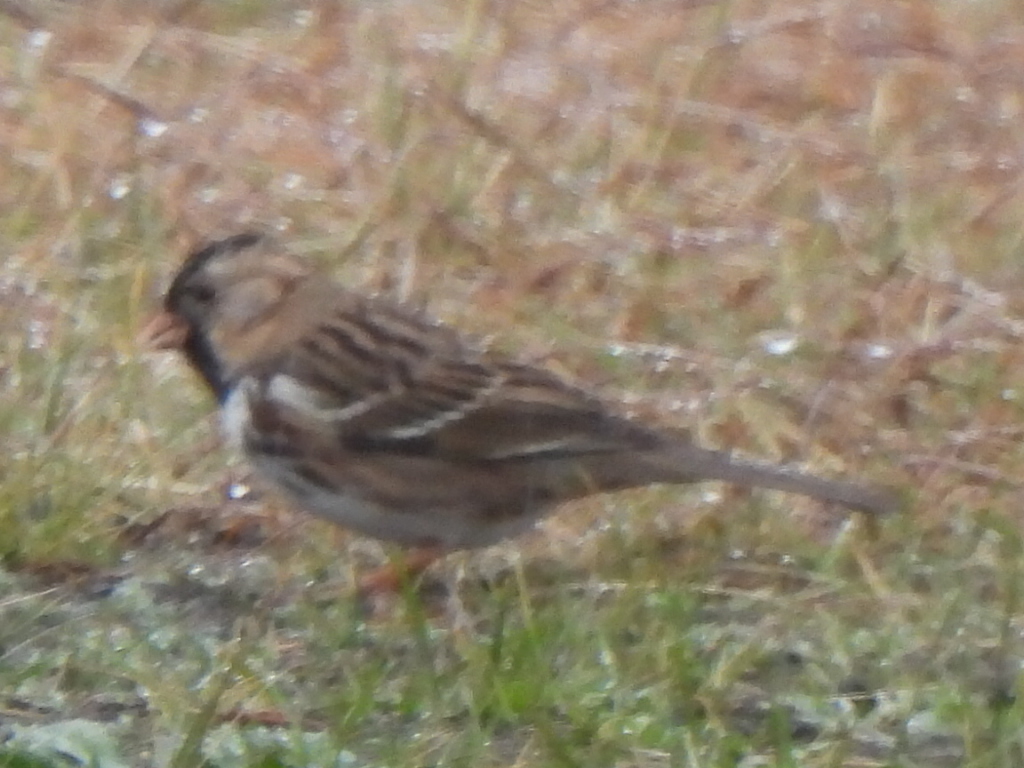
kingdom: Animalia
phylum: Chordata
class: Aves
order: Passeriformes
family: Passerellidae
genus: Zonotrichia
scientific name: Zonotrichia querula
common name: Harris's sparrow
